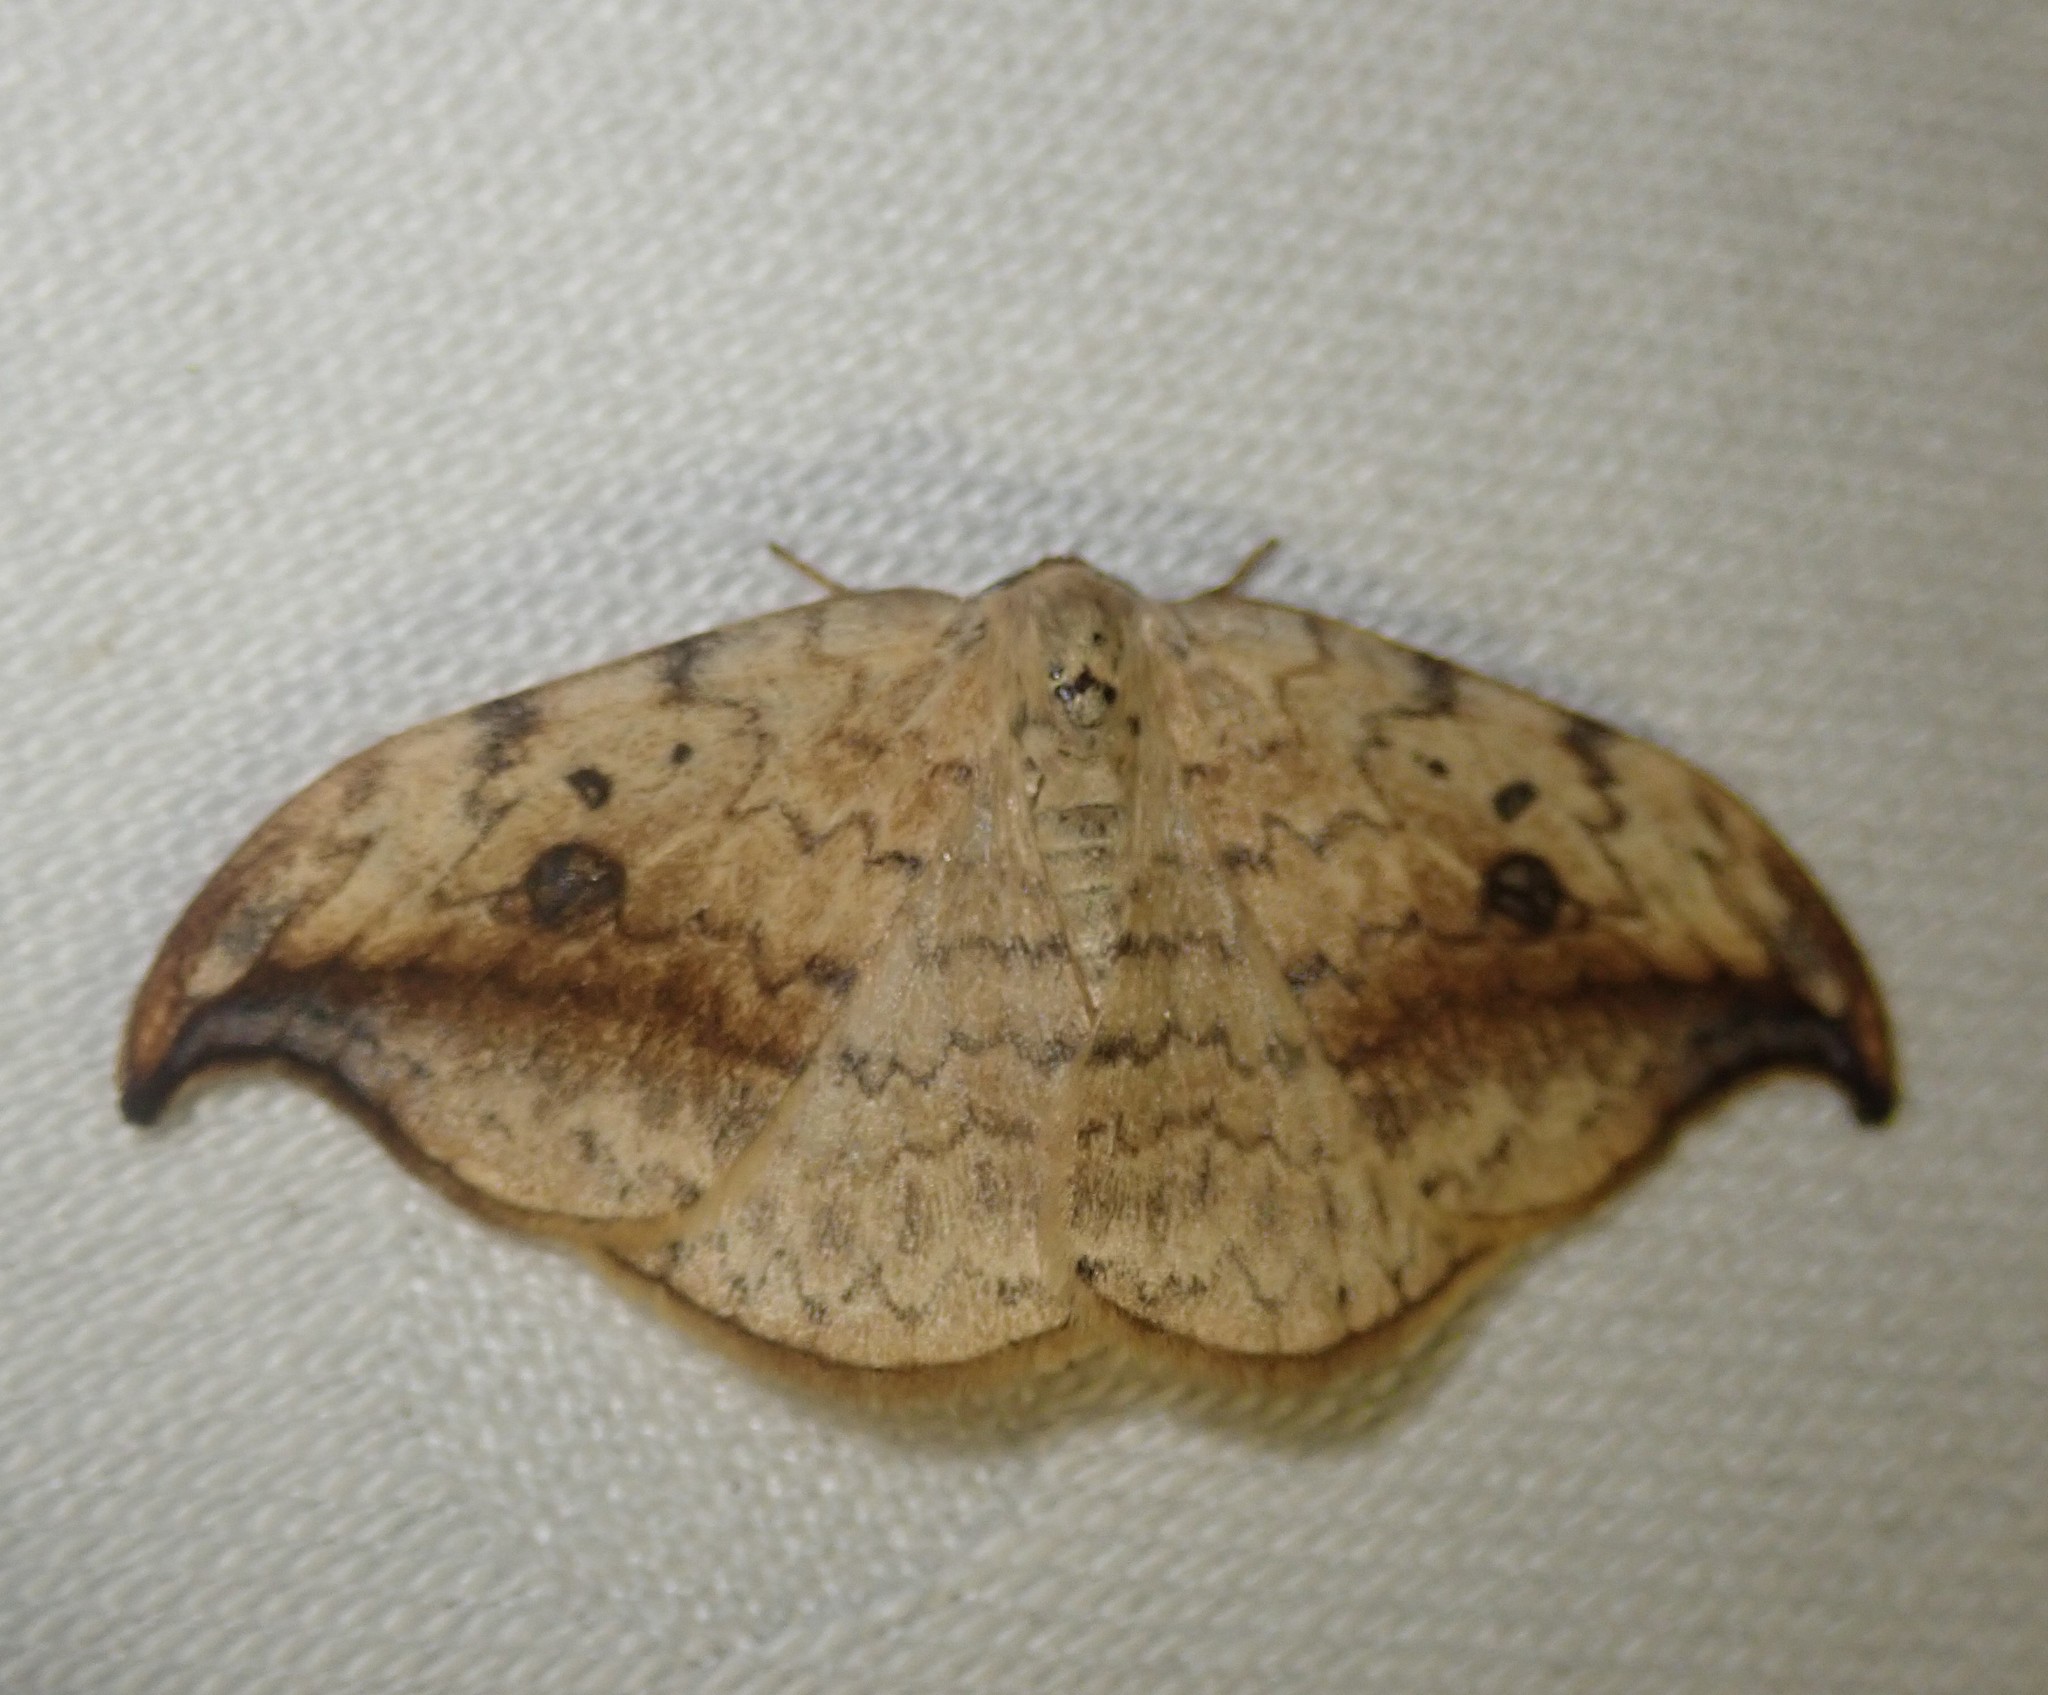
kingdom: Animalia
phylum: Arthropoda
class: Insecta
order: Lepidoptera
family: Drepanidae
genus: Drepana
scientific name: Drepana falcataria
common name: Pebble hook-tip
